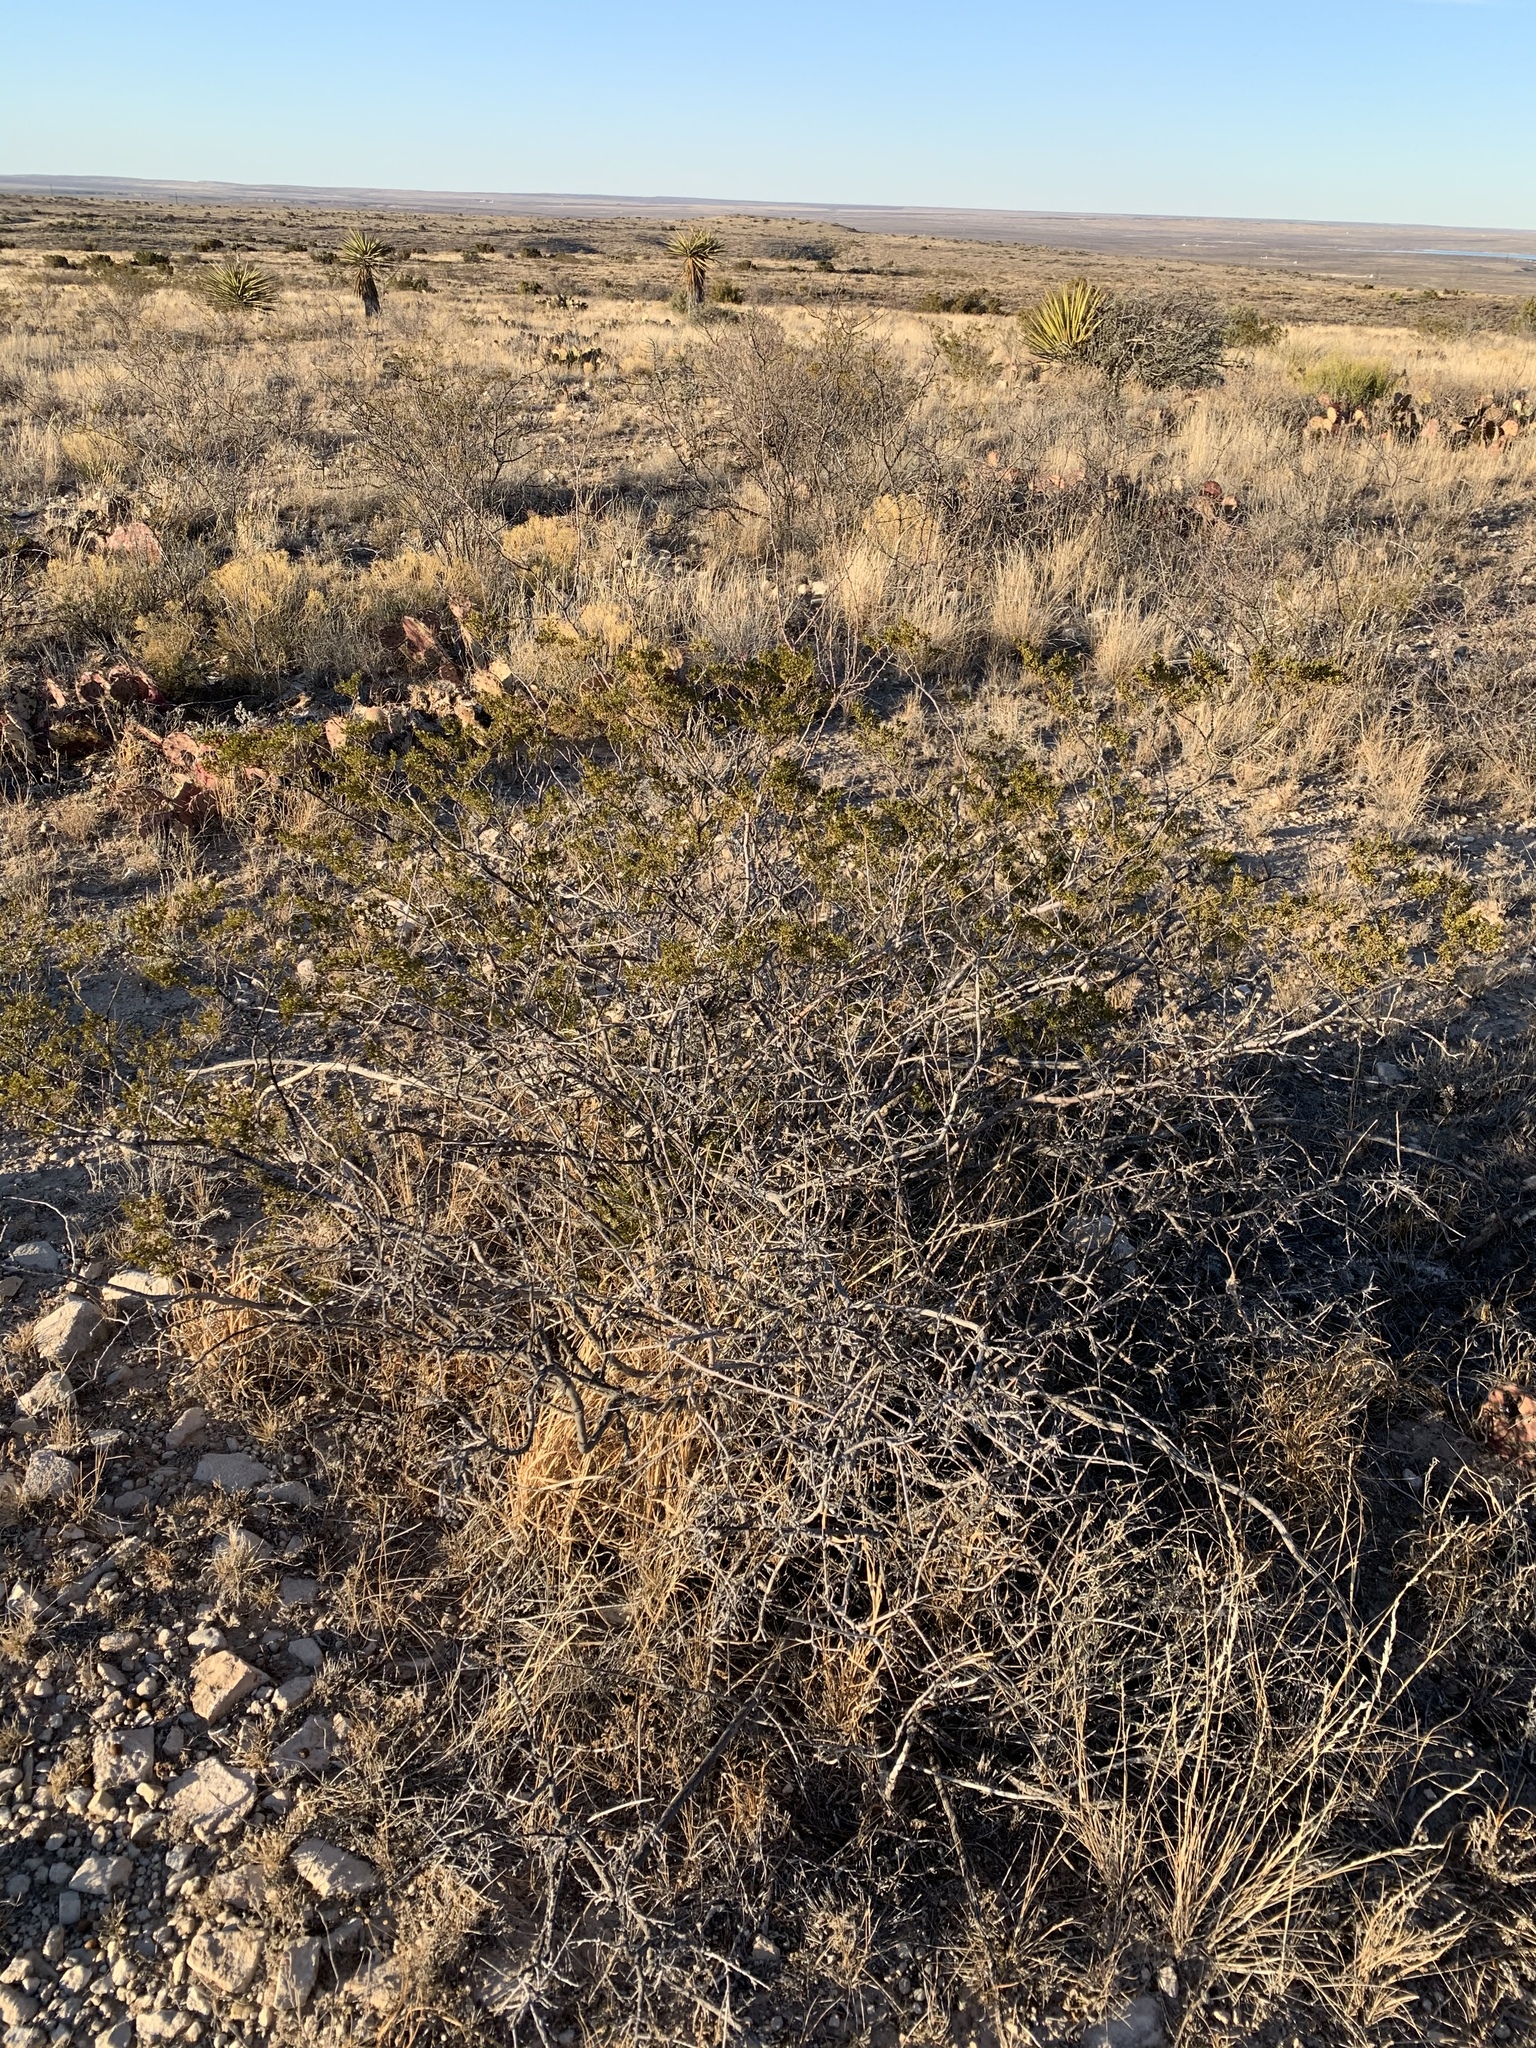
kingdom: Plantae
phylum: Tracheophyta
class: Magnoliopsida
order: Zygophyllales
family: Zygophyllaceae
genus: Larrea
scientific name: Larrea tridentata
